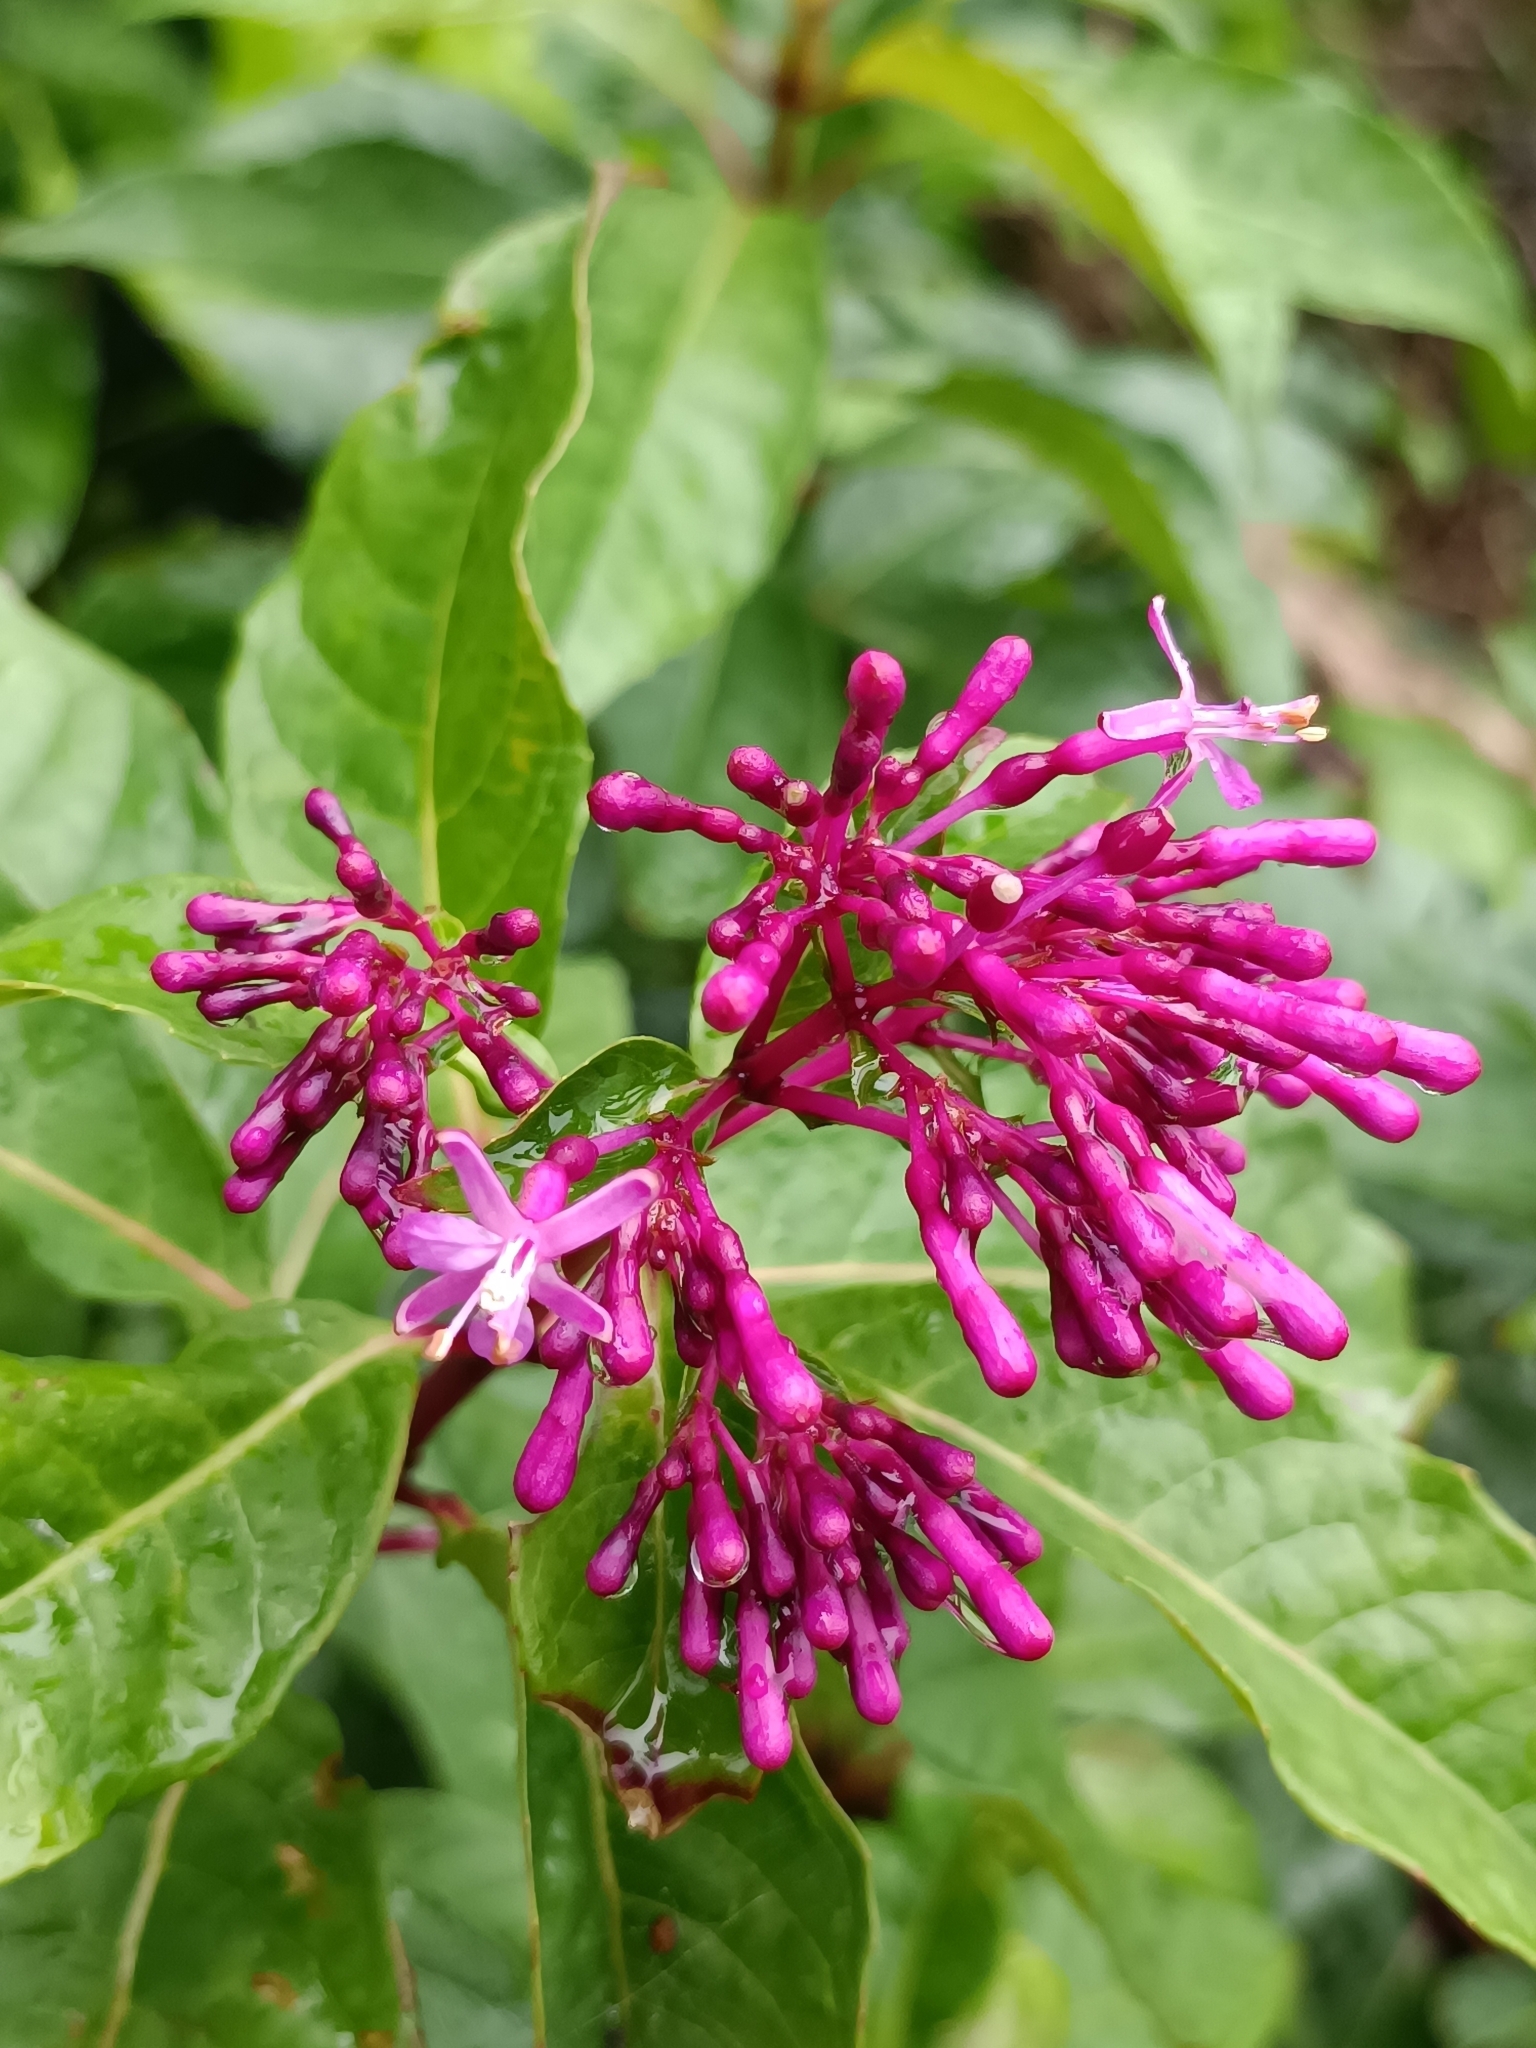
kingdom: Plantae
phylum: Tracheophyta
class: Magnoliopsida
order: Myrtales
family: Onagraceae
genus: Fuchsia
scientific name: Fuchsia paniculata
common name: Shrubby fuchsia
